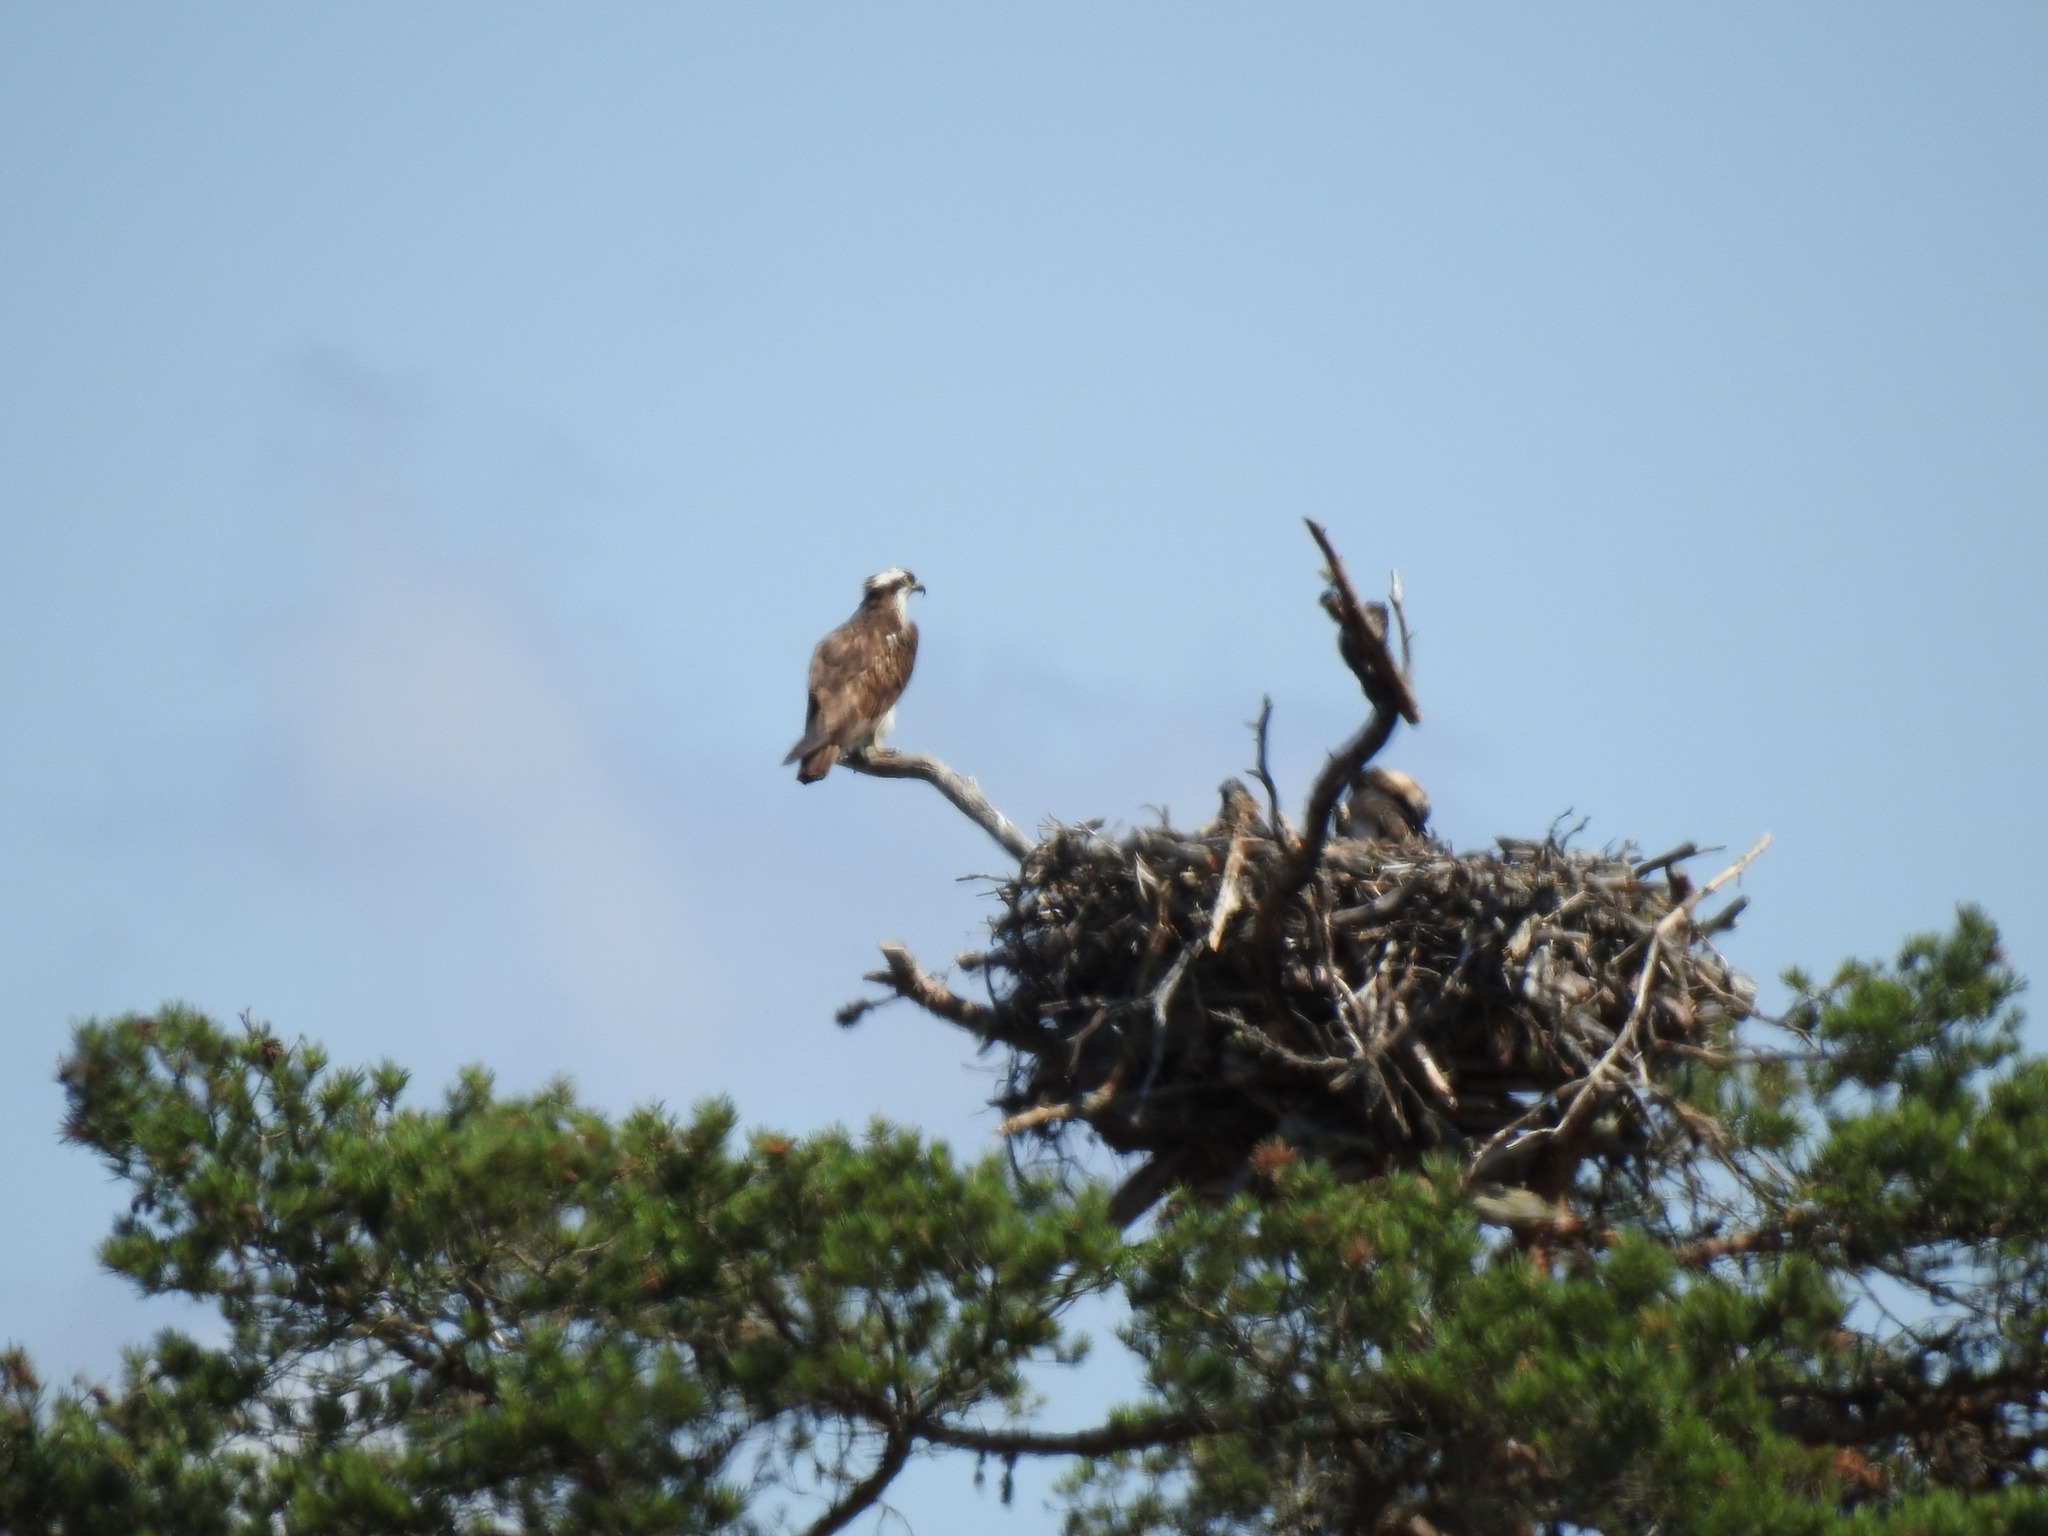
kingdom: Animalia
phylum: Chordata
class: Aves
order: Accipitriformes
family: Pandionidae
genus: Pandion
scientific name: Pandion haliaetus
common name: Osprey
